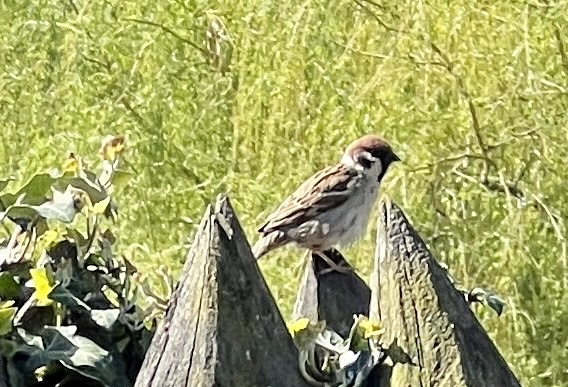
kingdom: Animalia
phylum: Chordata
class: Aves
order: Passeriformes
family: Passeridae
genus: Passer
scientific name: Passer montanus
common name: Eurasian tree sparrow
